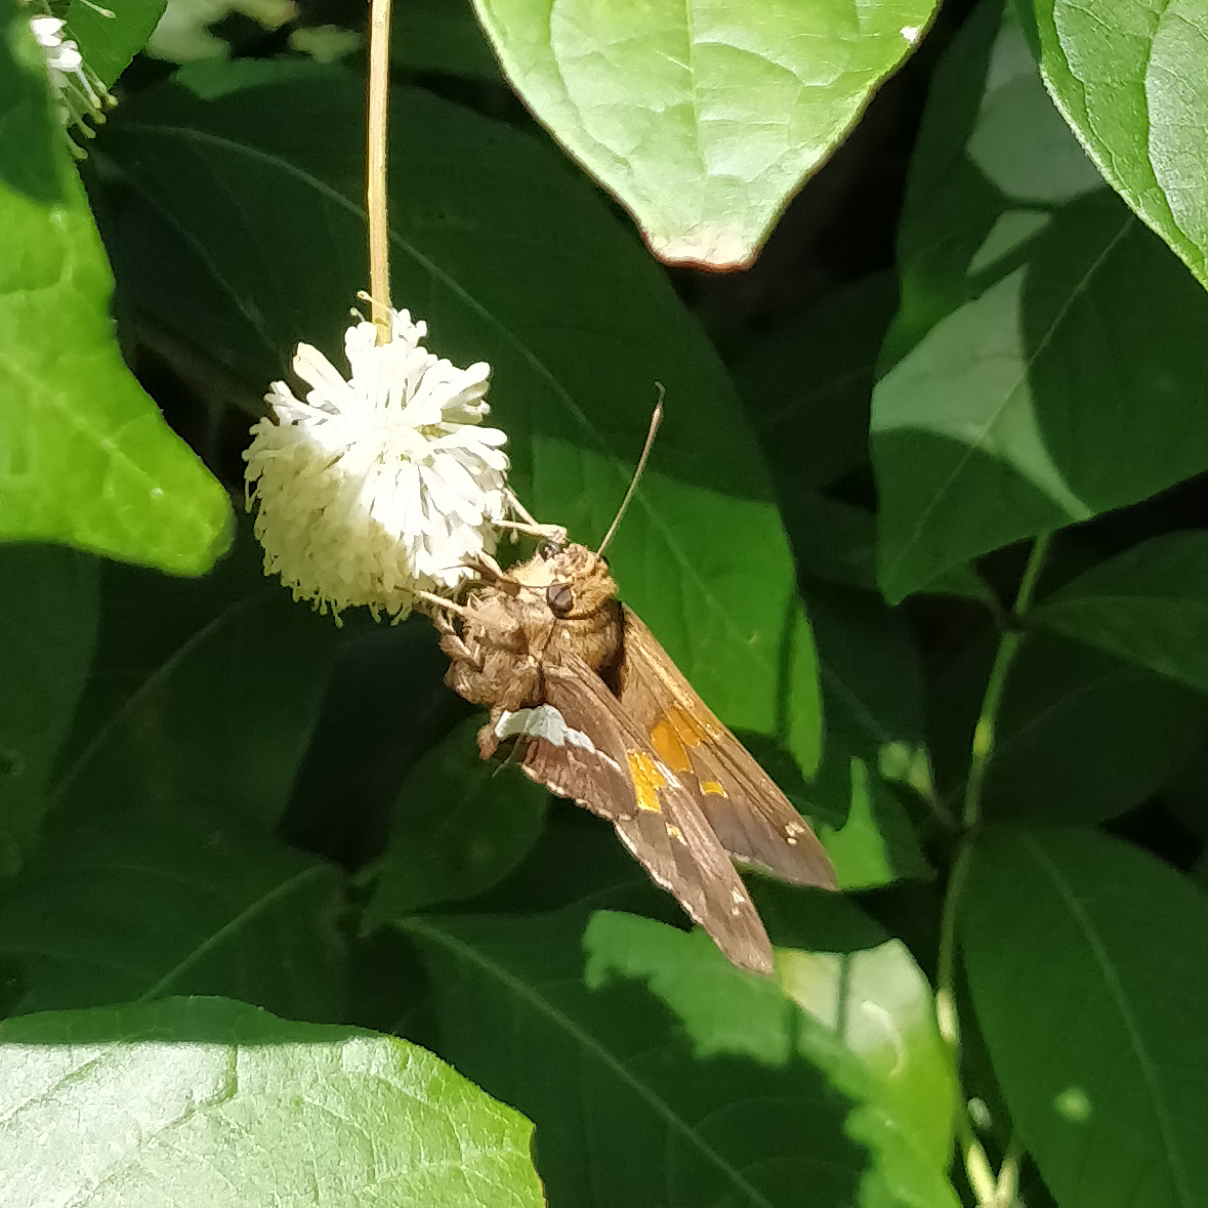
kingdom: Animalia
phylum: Arthropoda
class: Insecta
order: Lepidoptera
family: Hesperiidae
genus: Epargyreus
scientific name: Epargyreus clarus
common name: Silver-spotted skipper
